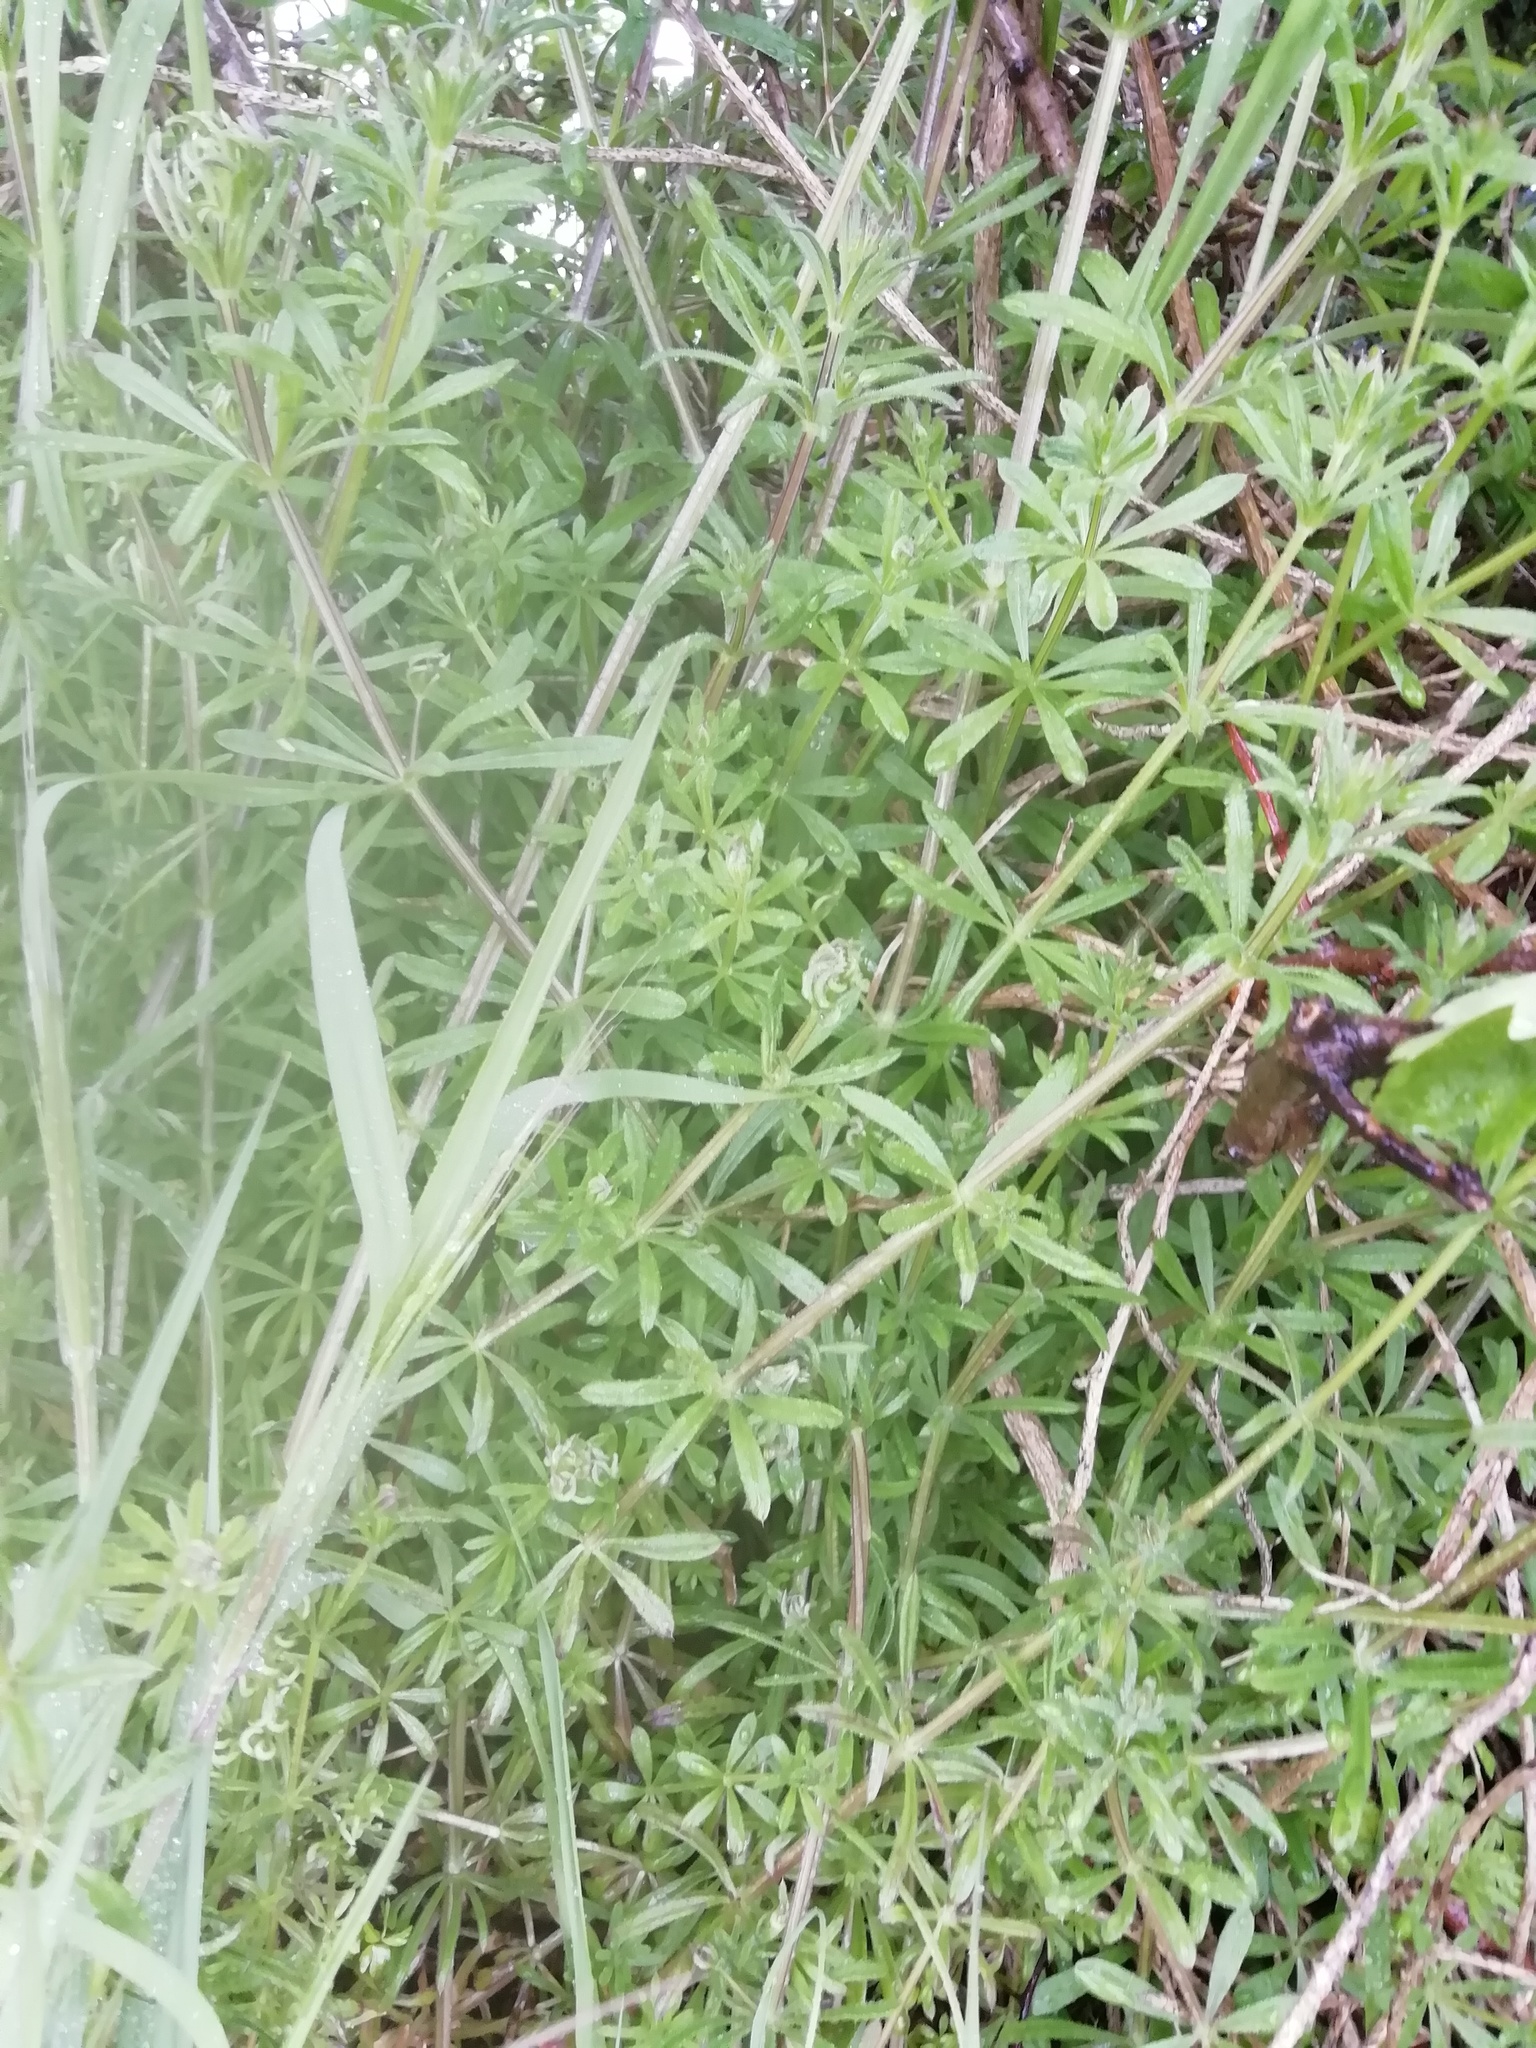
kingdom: Plantae
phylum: Tracheophyta
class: Magnoliopsida
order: Gentianales
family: Rubiaceae
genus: Galium
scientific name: Galium aparine
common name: Cleavers
